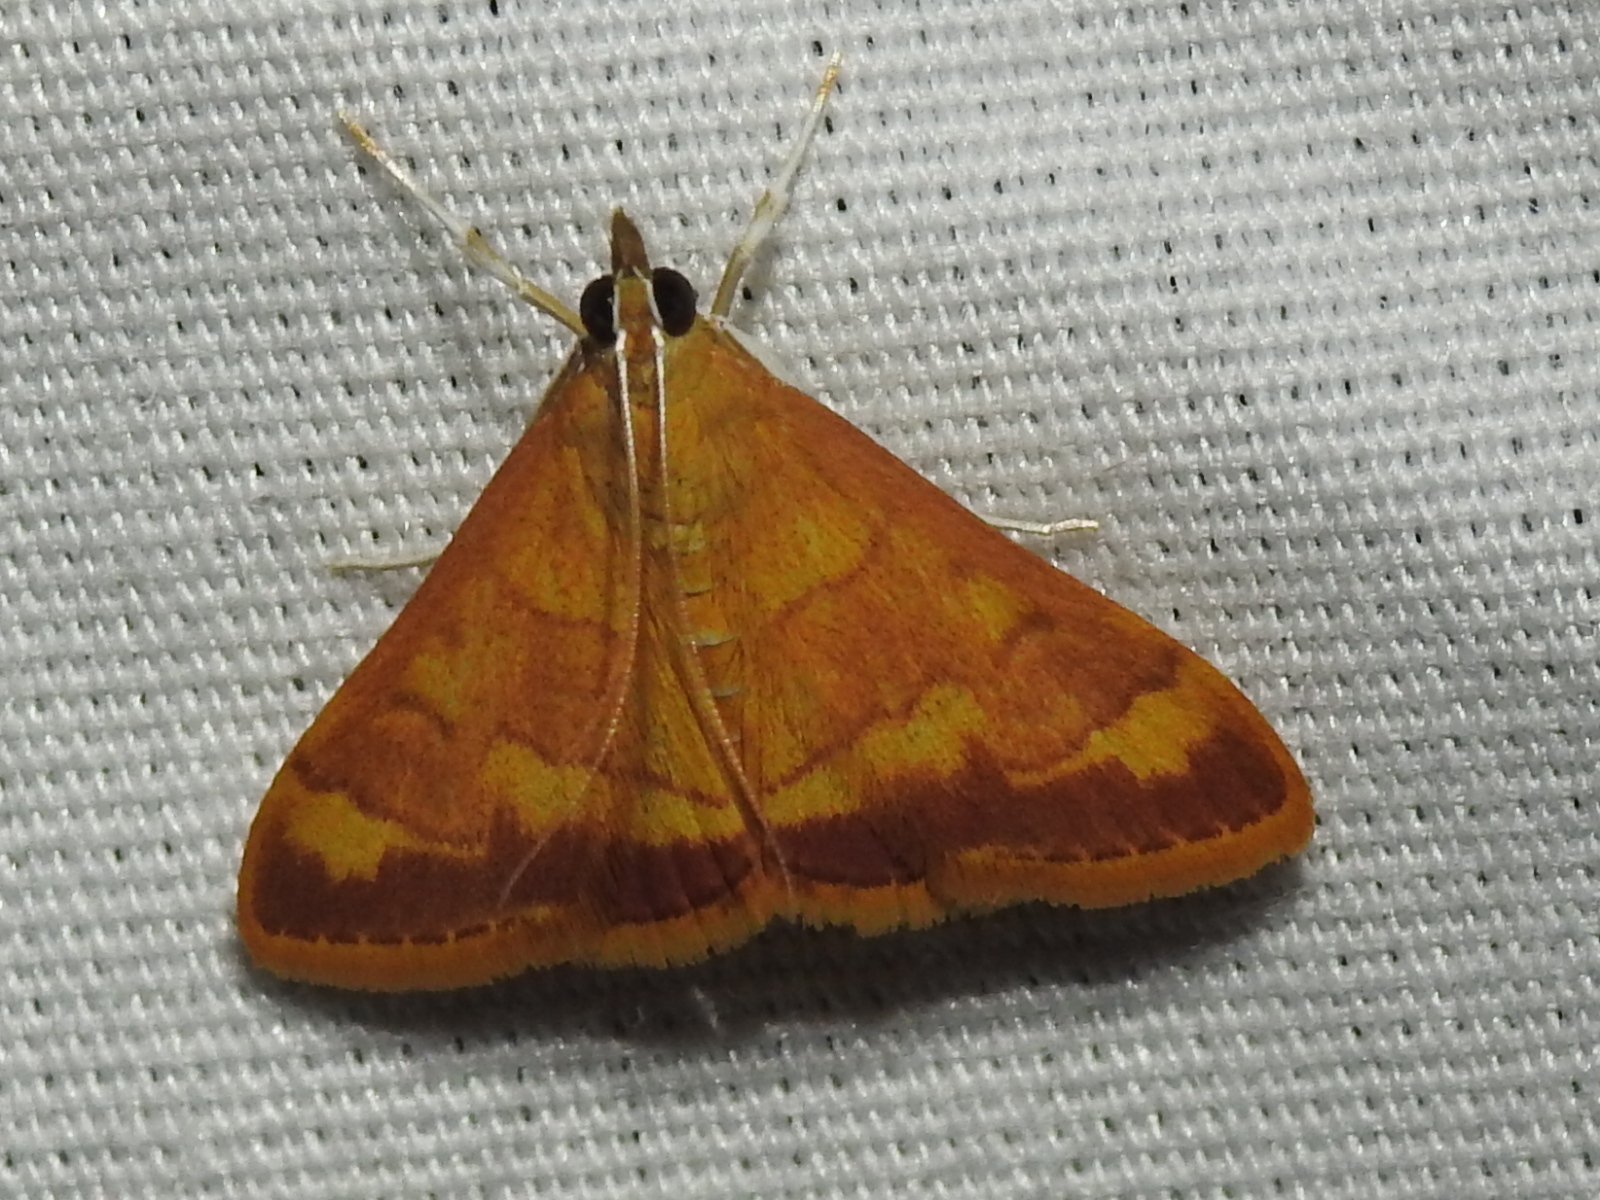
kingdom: Animalia
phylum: Arthropoda
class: Insecta
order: Lepidoptera
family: Crambidae
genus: Pyrausta
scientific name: Pyrausta pseudonythesalis
